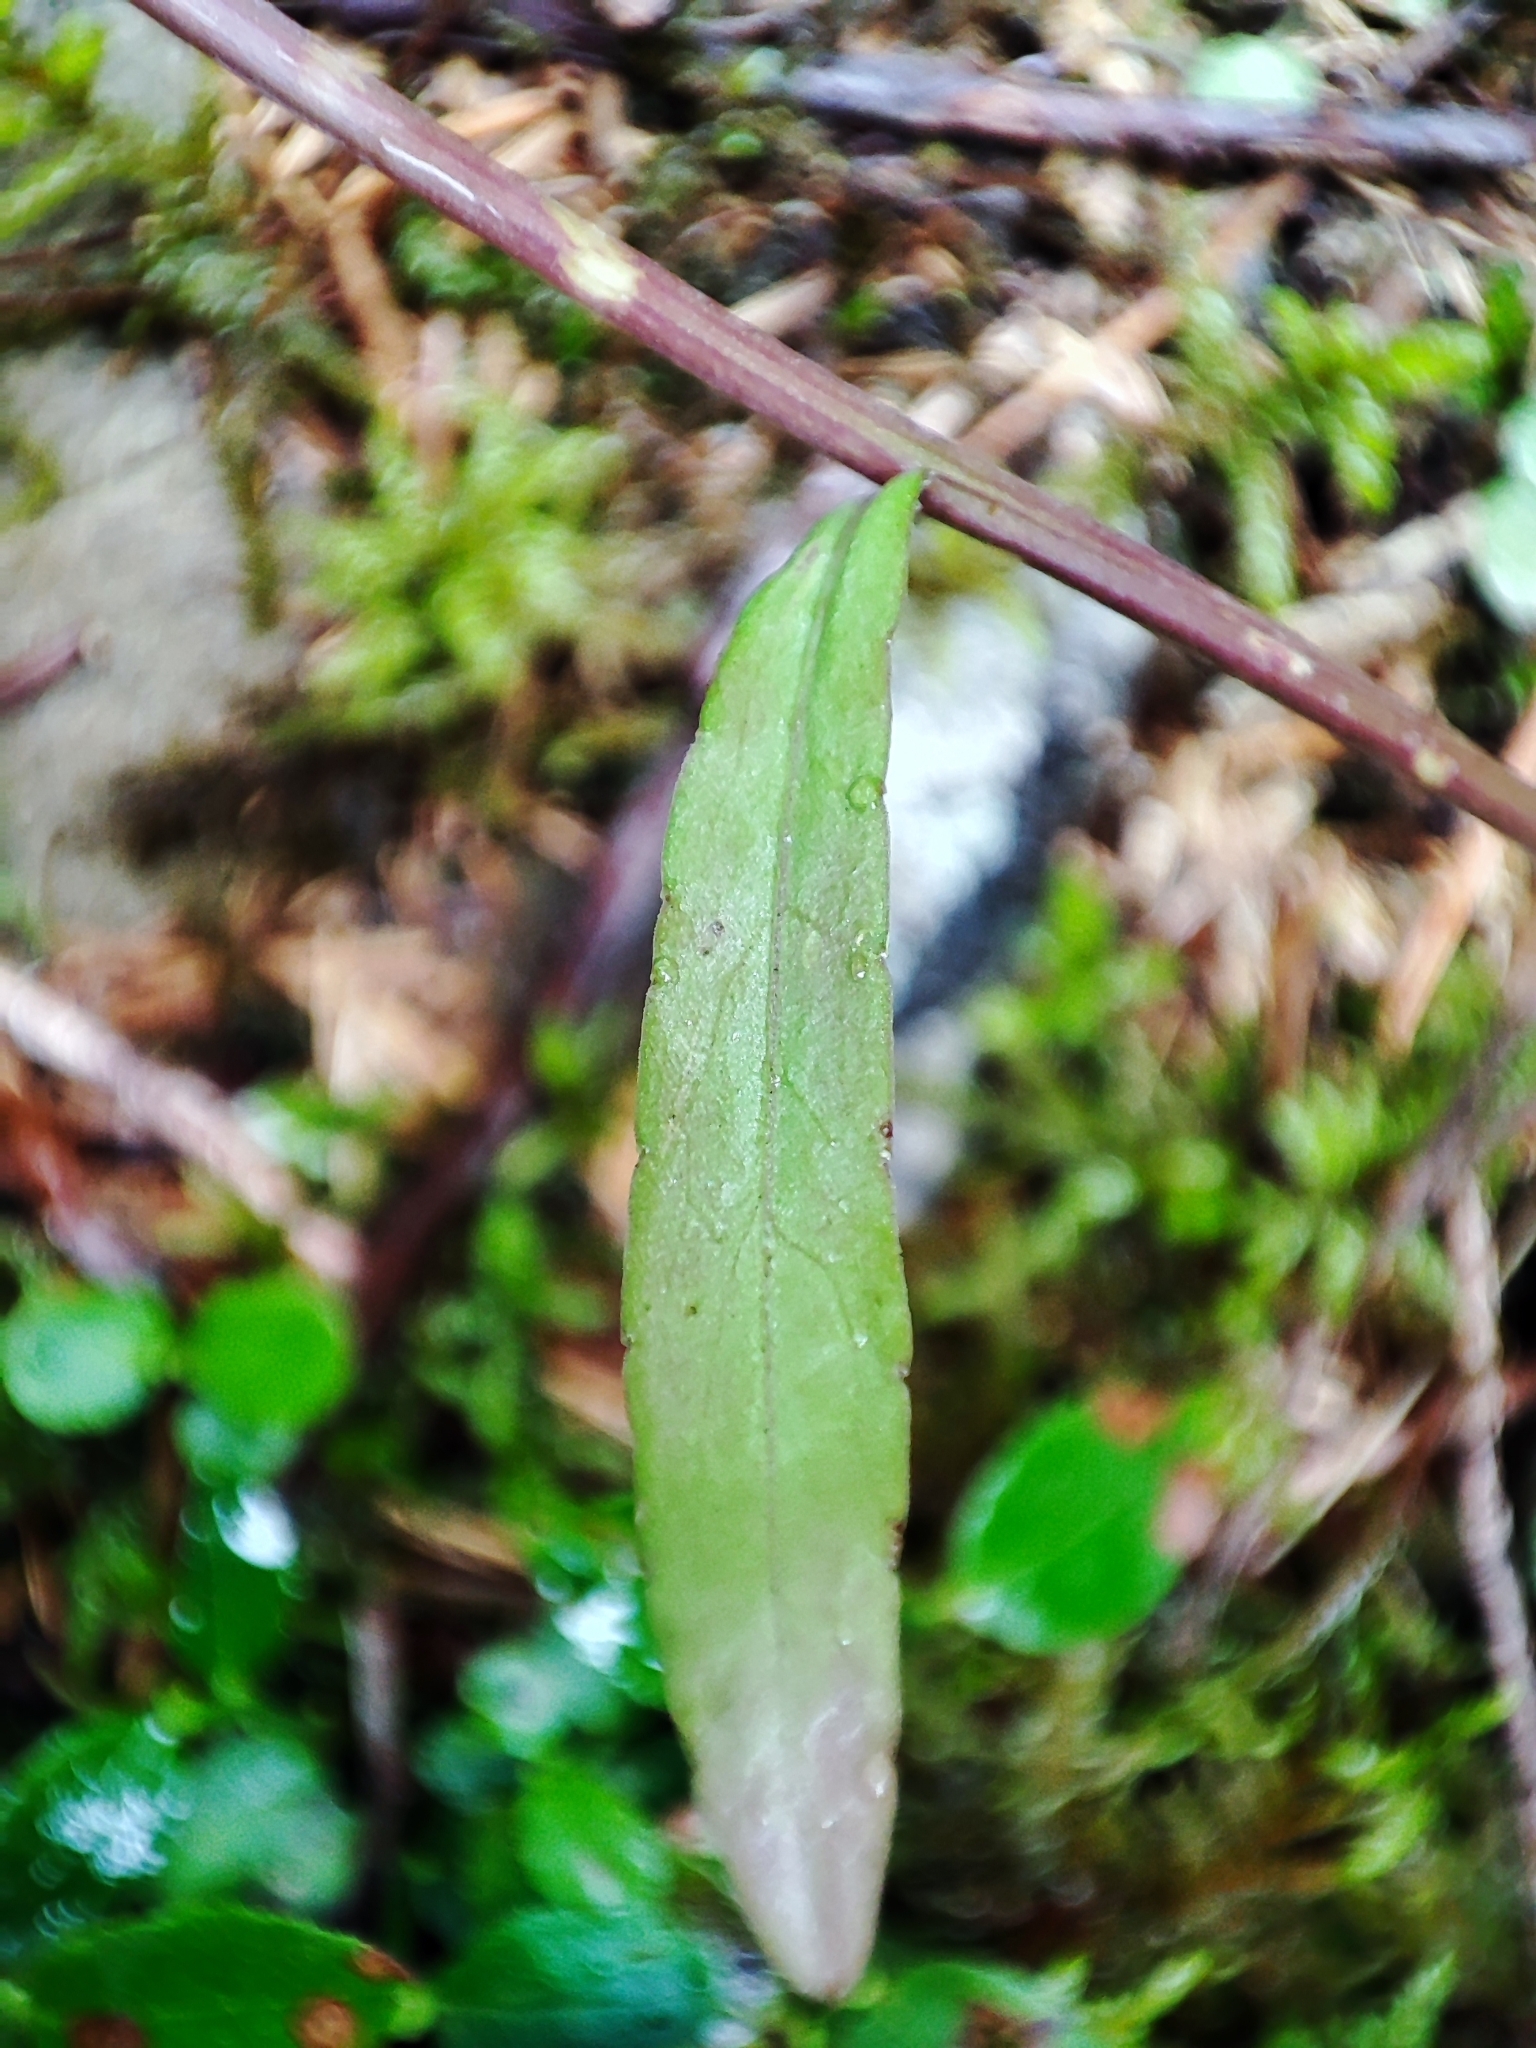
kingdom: Plantae
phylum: Tracheophyta
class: Magnoliopsida
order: Asterales
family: Campanulaceae
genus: Campanula
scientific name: Campanula patula
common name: Spreading bellflower
